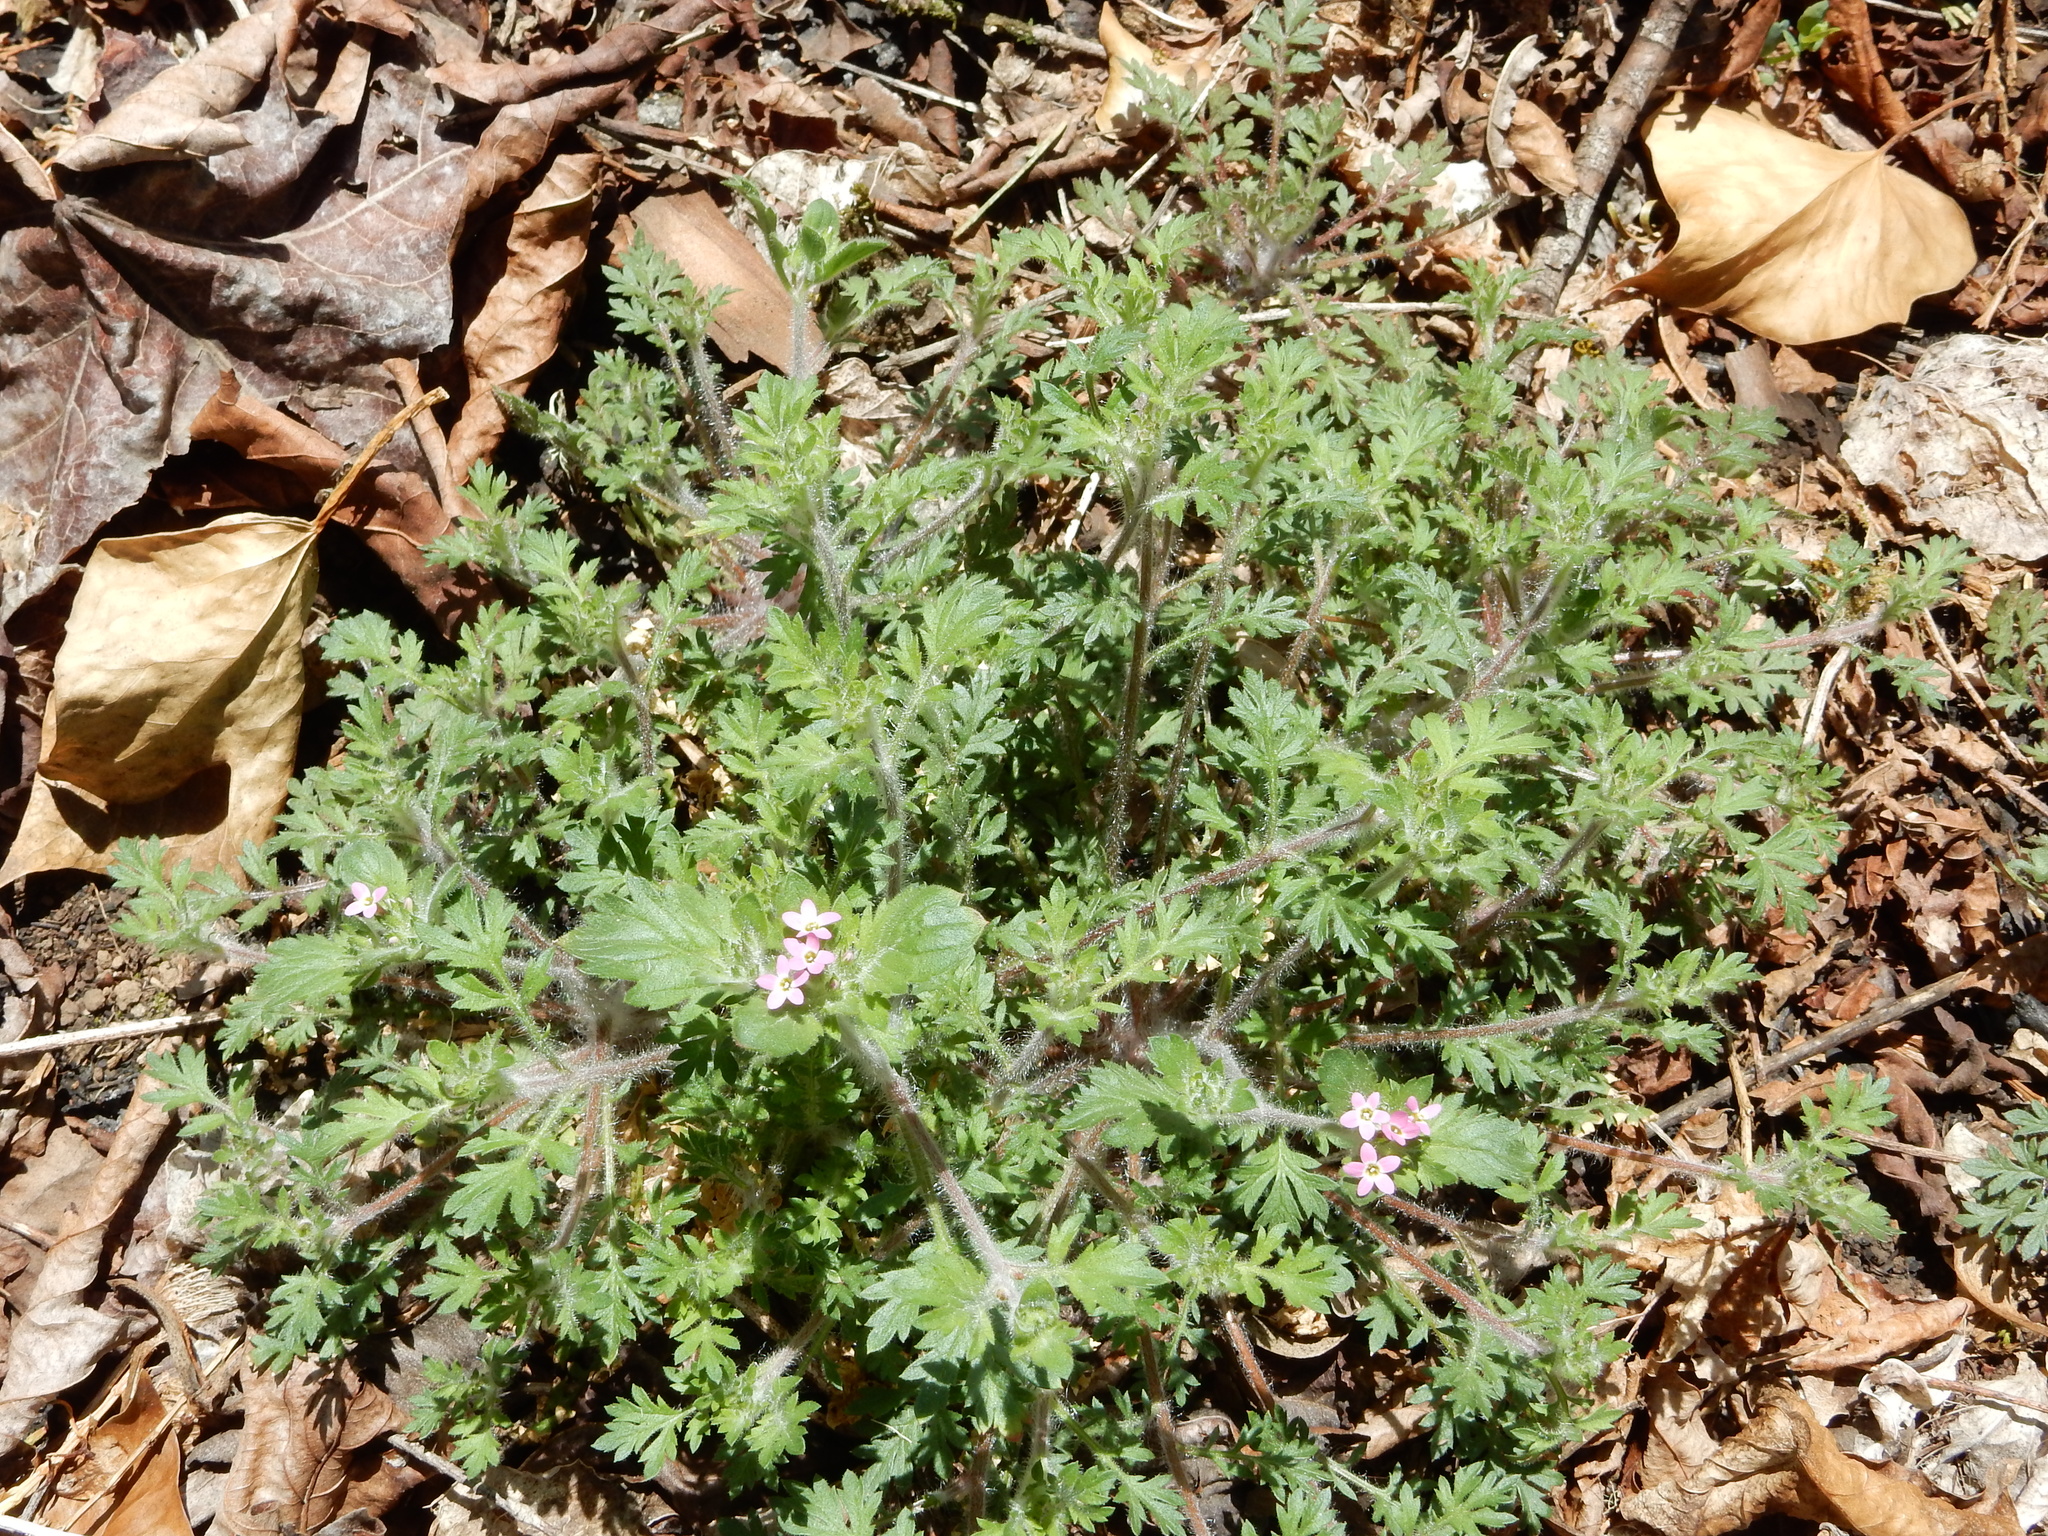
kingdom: Plantae
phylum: Tracheophyta
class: Magnoliopsida
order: Ericales
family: Polemoniaceae
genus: Collomia
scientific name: Collomia heterophylla
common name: Variable-leaved collomia
